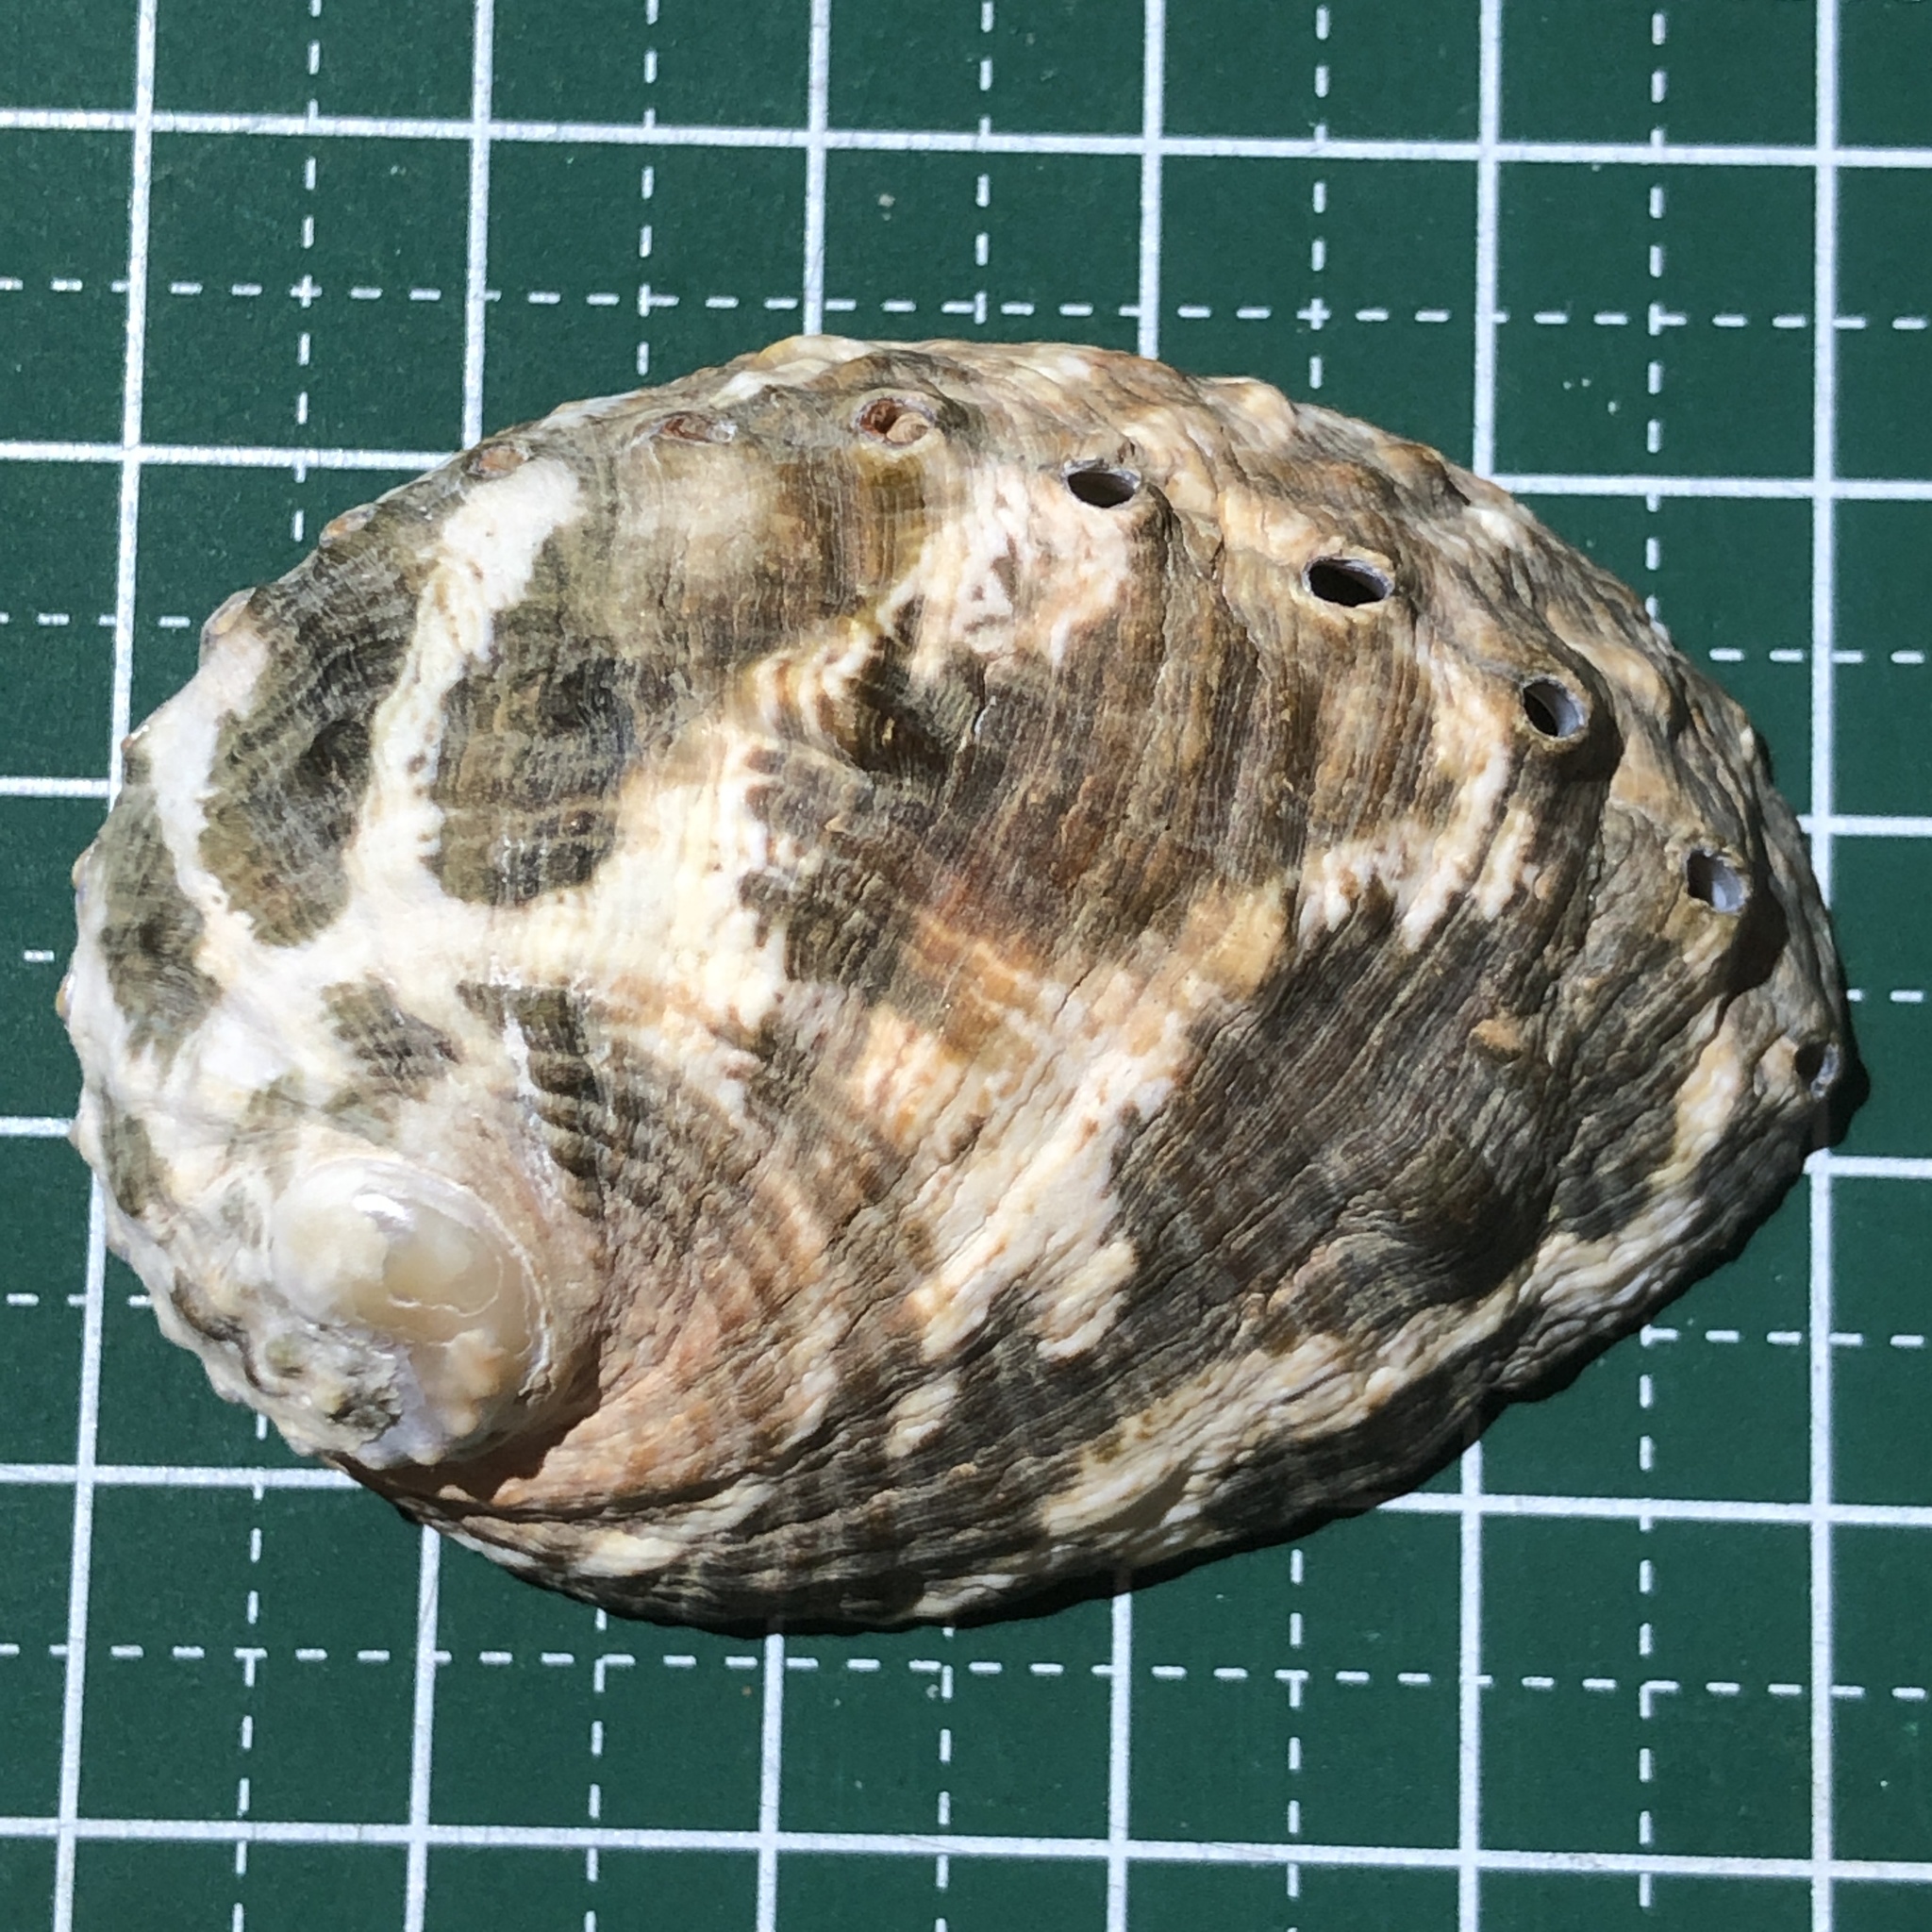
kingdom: Animalia
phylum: Mollusca
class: Gastropoda
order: Lepetellida
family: Haliotidae
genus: Haliotis
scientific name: Haliotis varia
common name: Variable abalone
